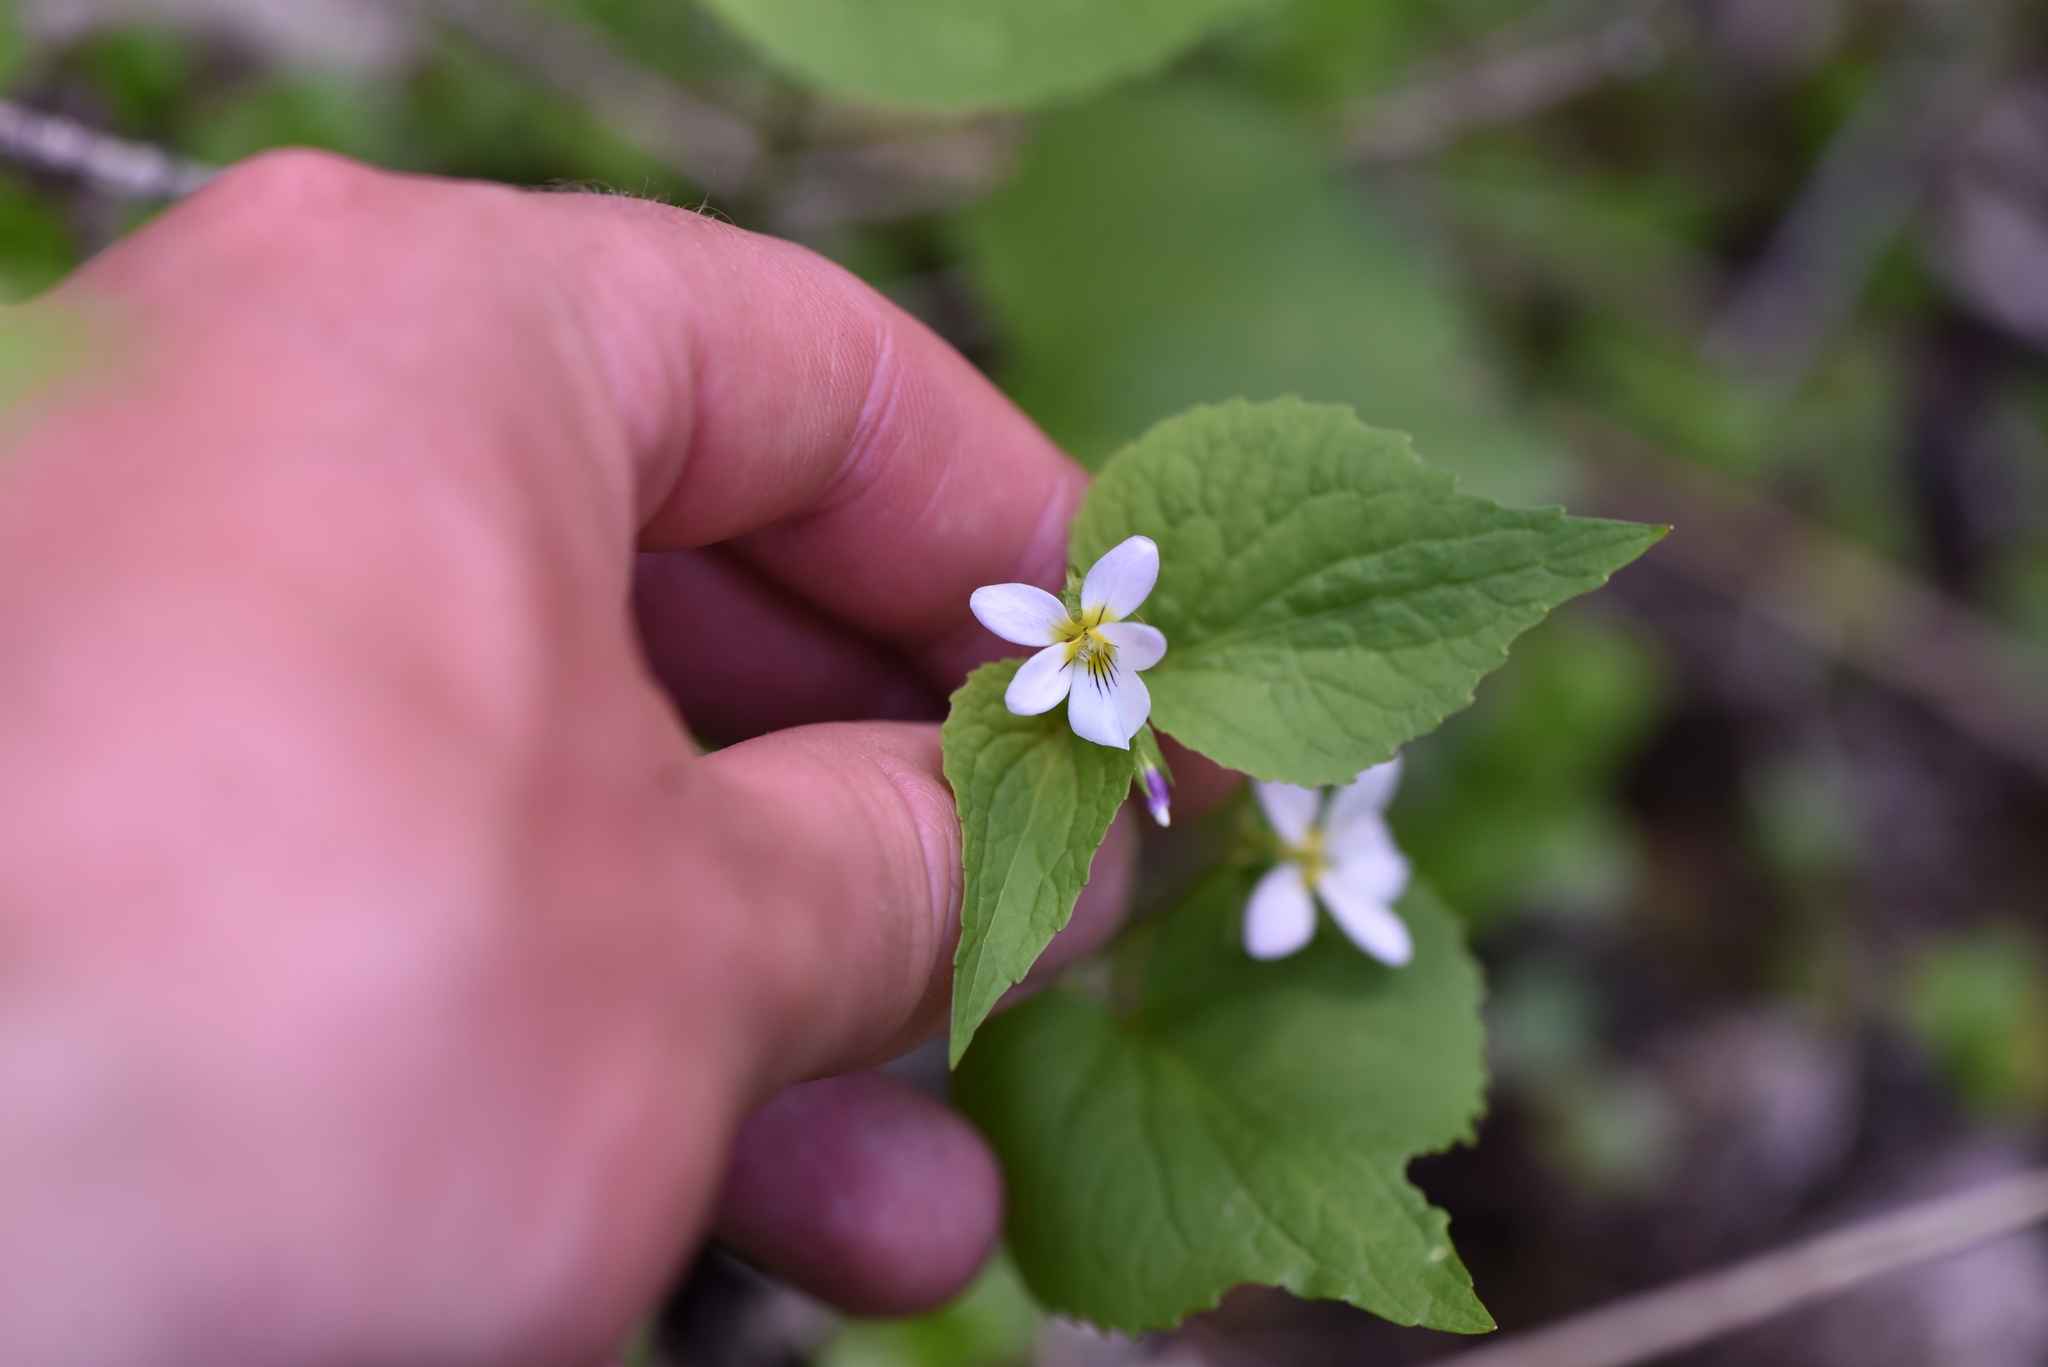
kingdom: Plantae
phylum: Tracheophyta
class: Magnoliopsida
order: Malpighiales
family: Violaceae
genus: Viola
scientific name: Viola canadensis
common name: Canada violet
